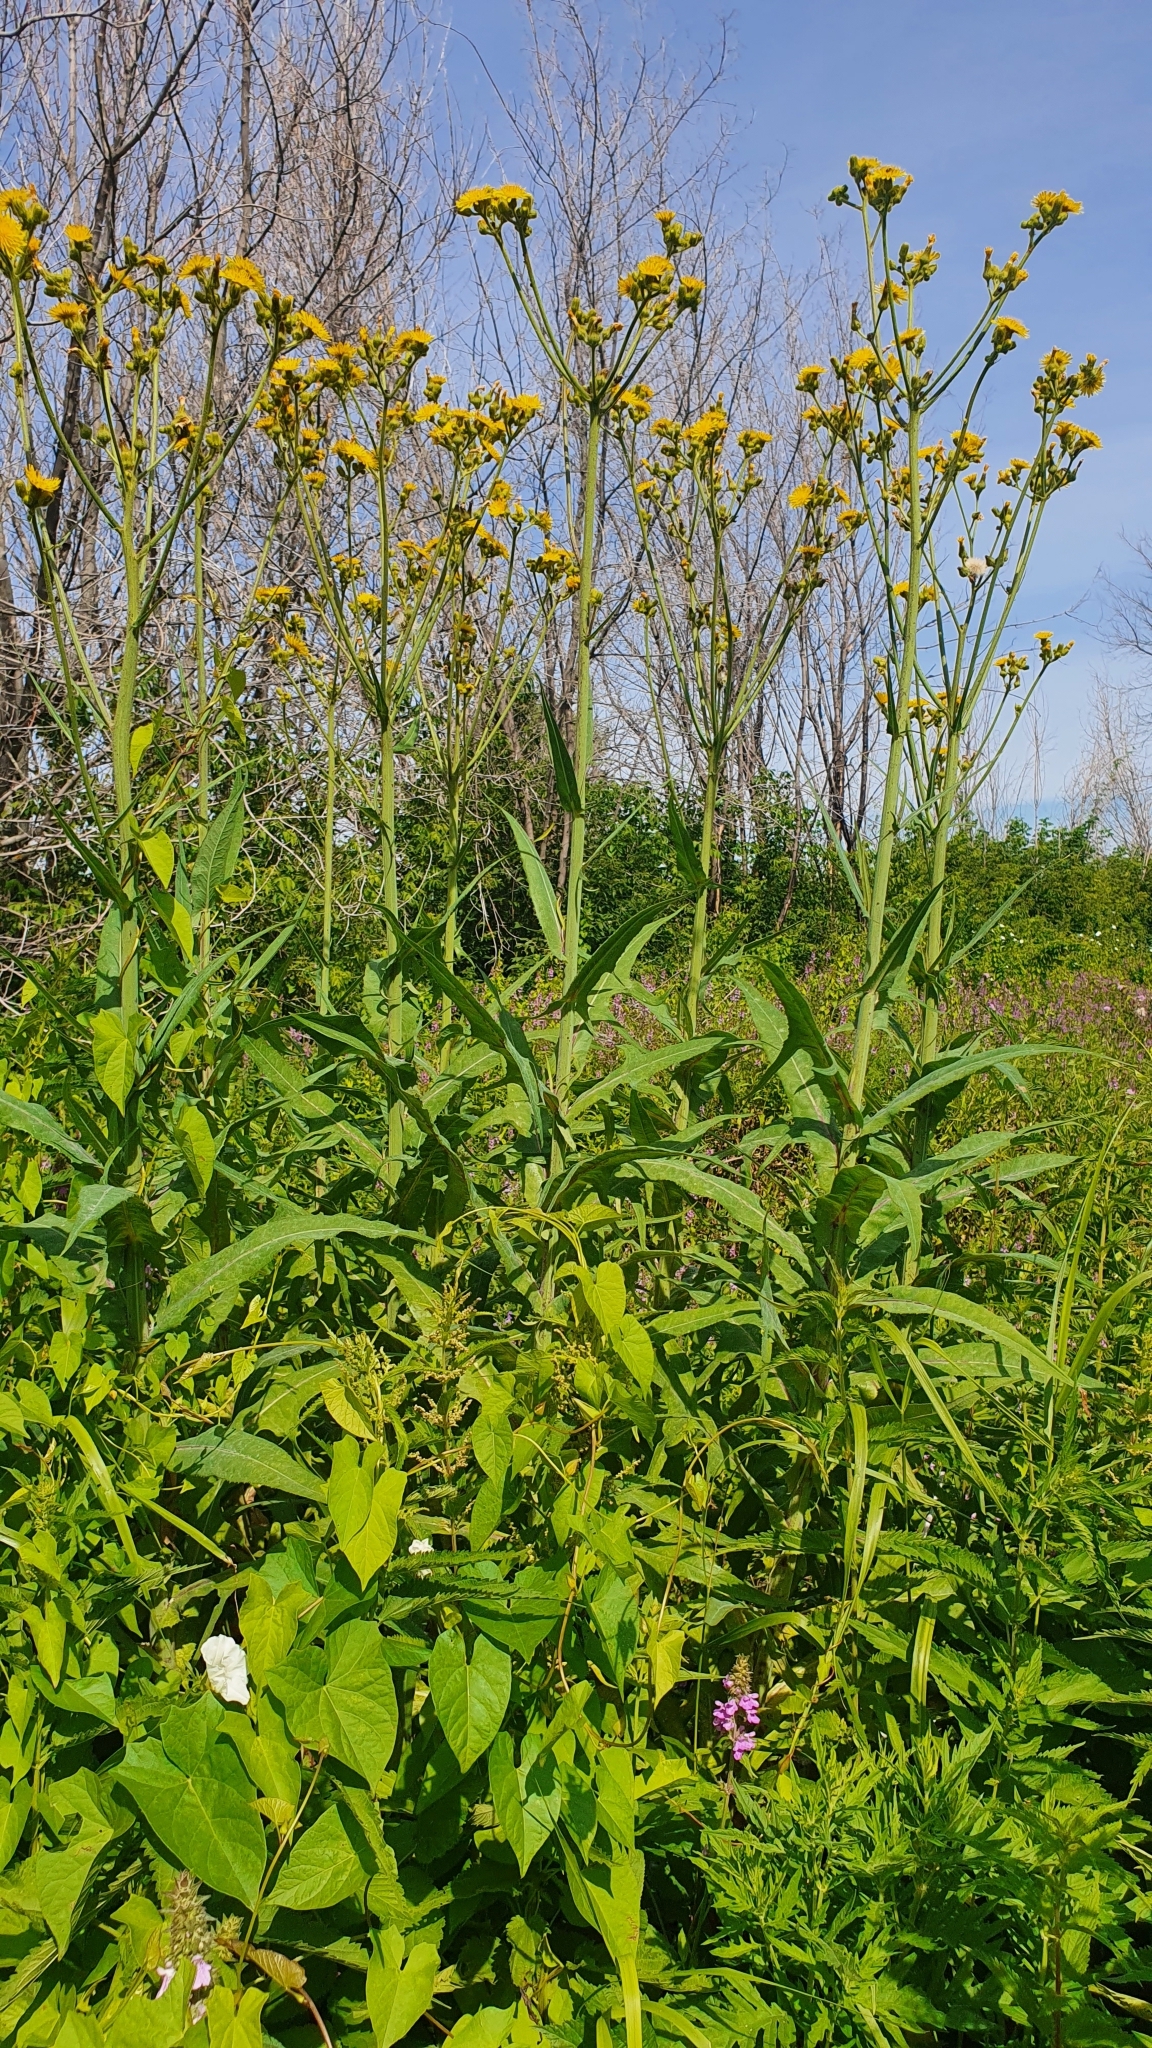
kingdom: Plantae
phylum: Tracheophyta
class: Magnoliopsida
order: Asterales
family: Asteraceae
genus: Sonchus
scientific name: Sonchus palustris
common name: Marsh sow-thistle
